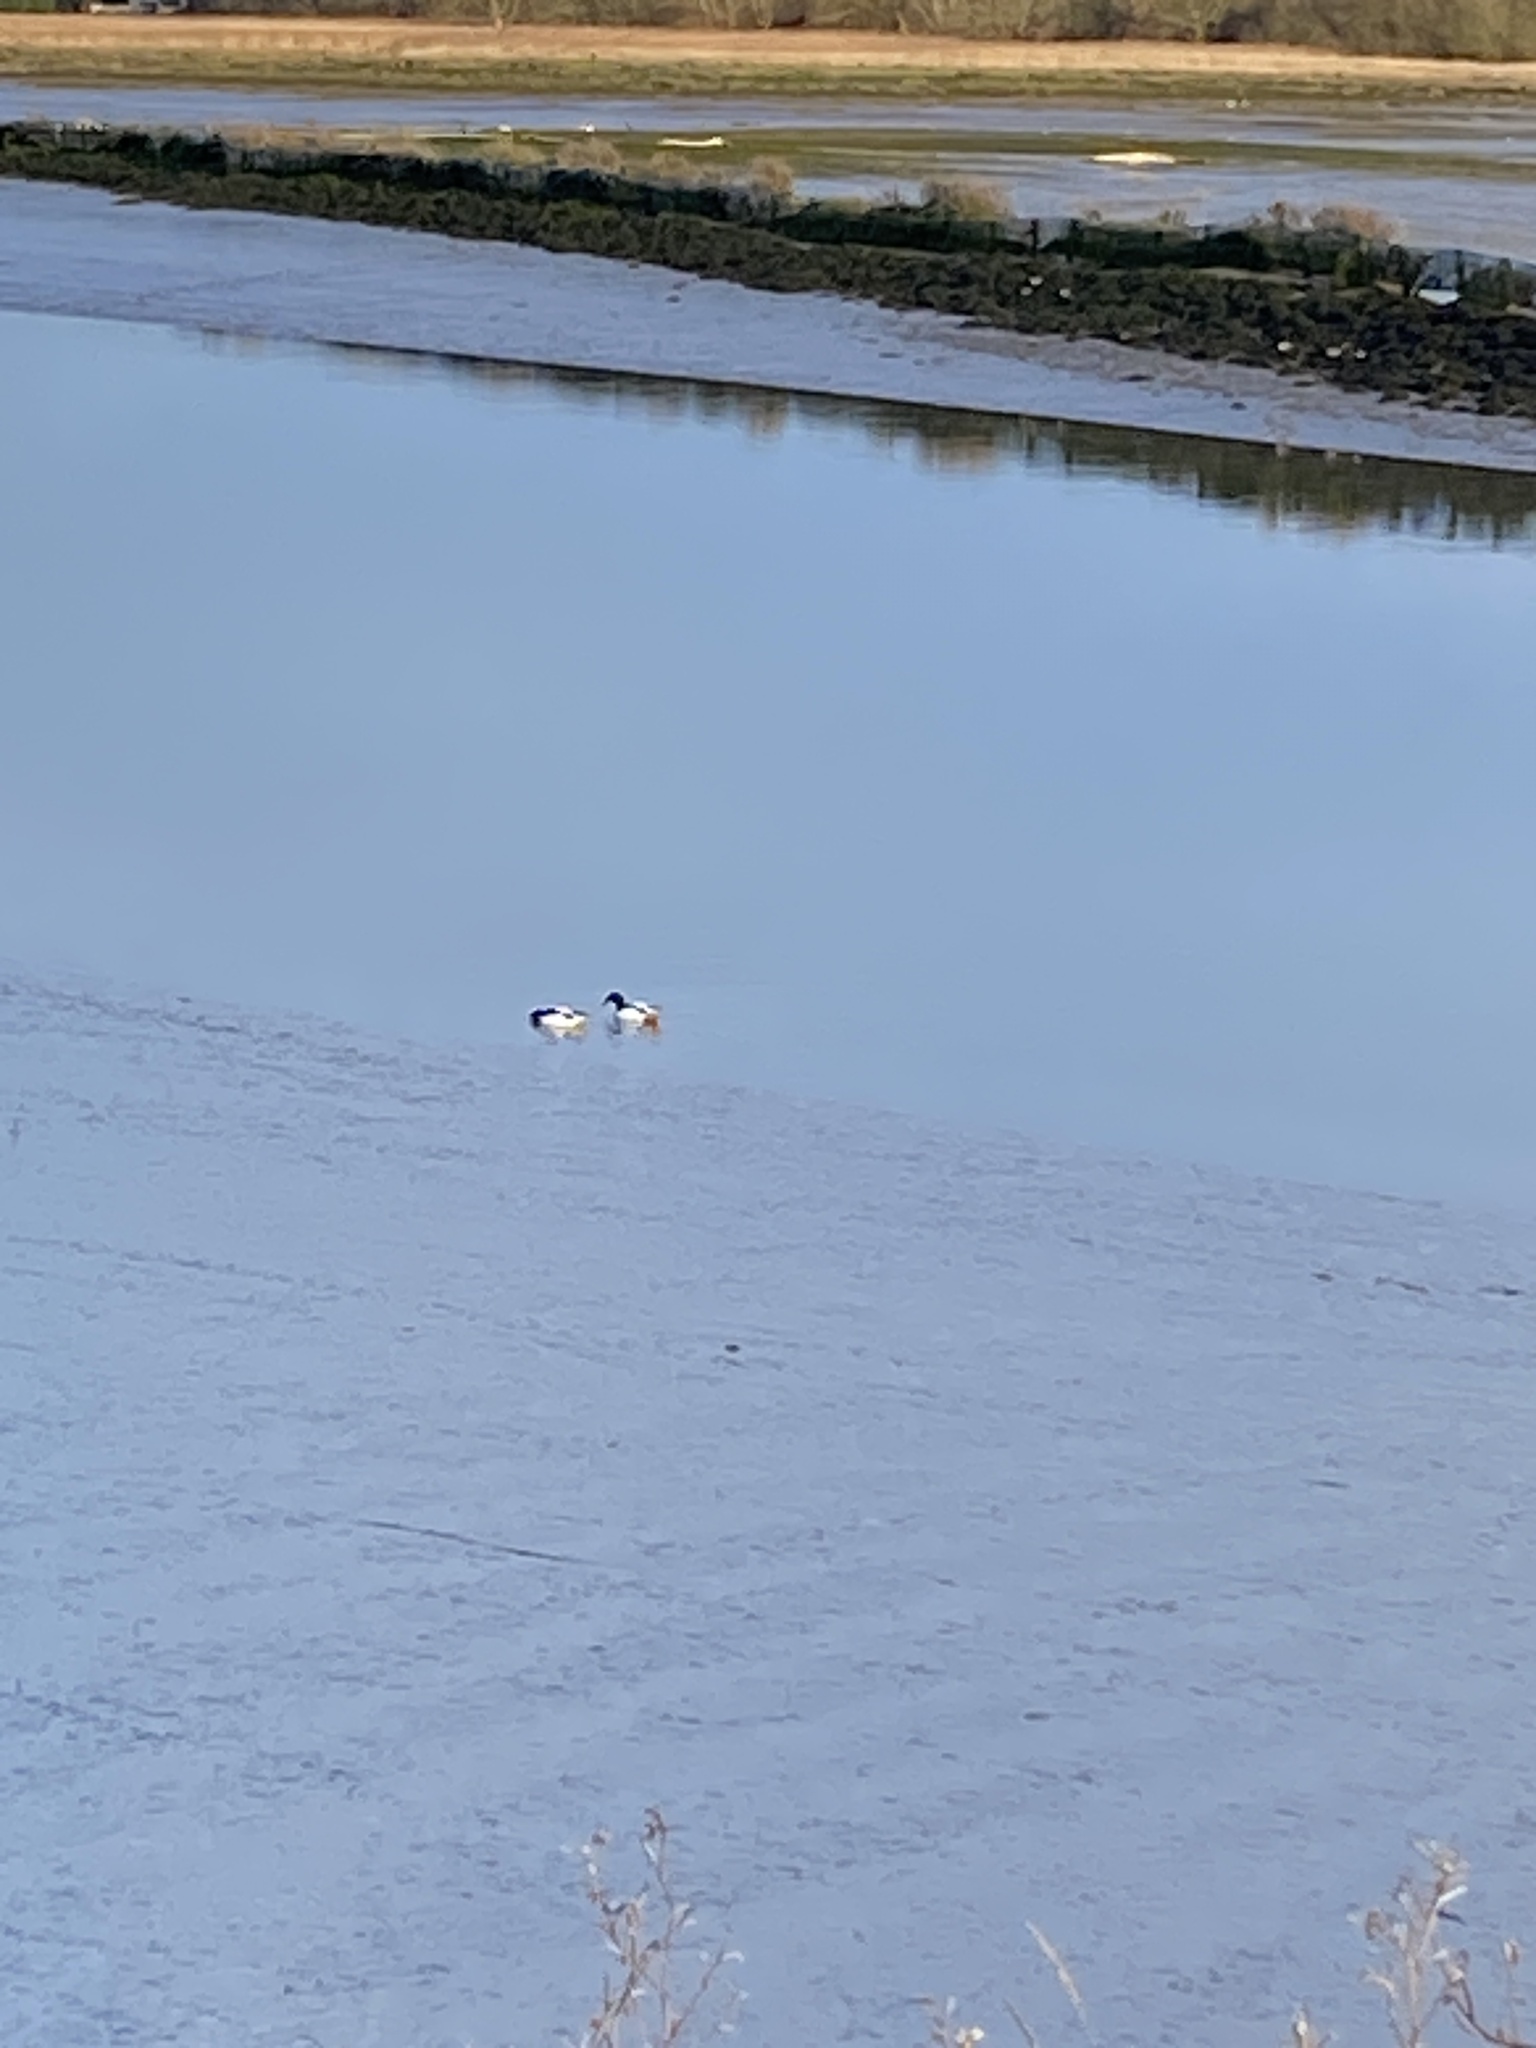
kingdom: Animalia
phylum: Chordata
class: Aves
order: Anseriformes
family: Anatidae
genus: Tadorna
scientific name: Tadorna tadorna
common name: Common shelduck
